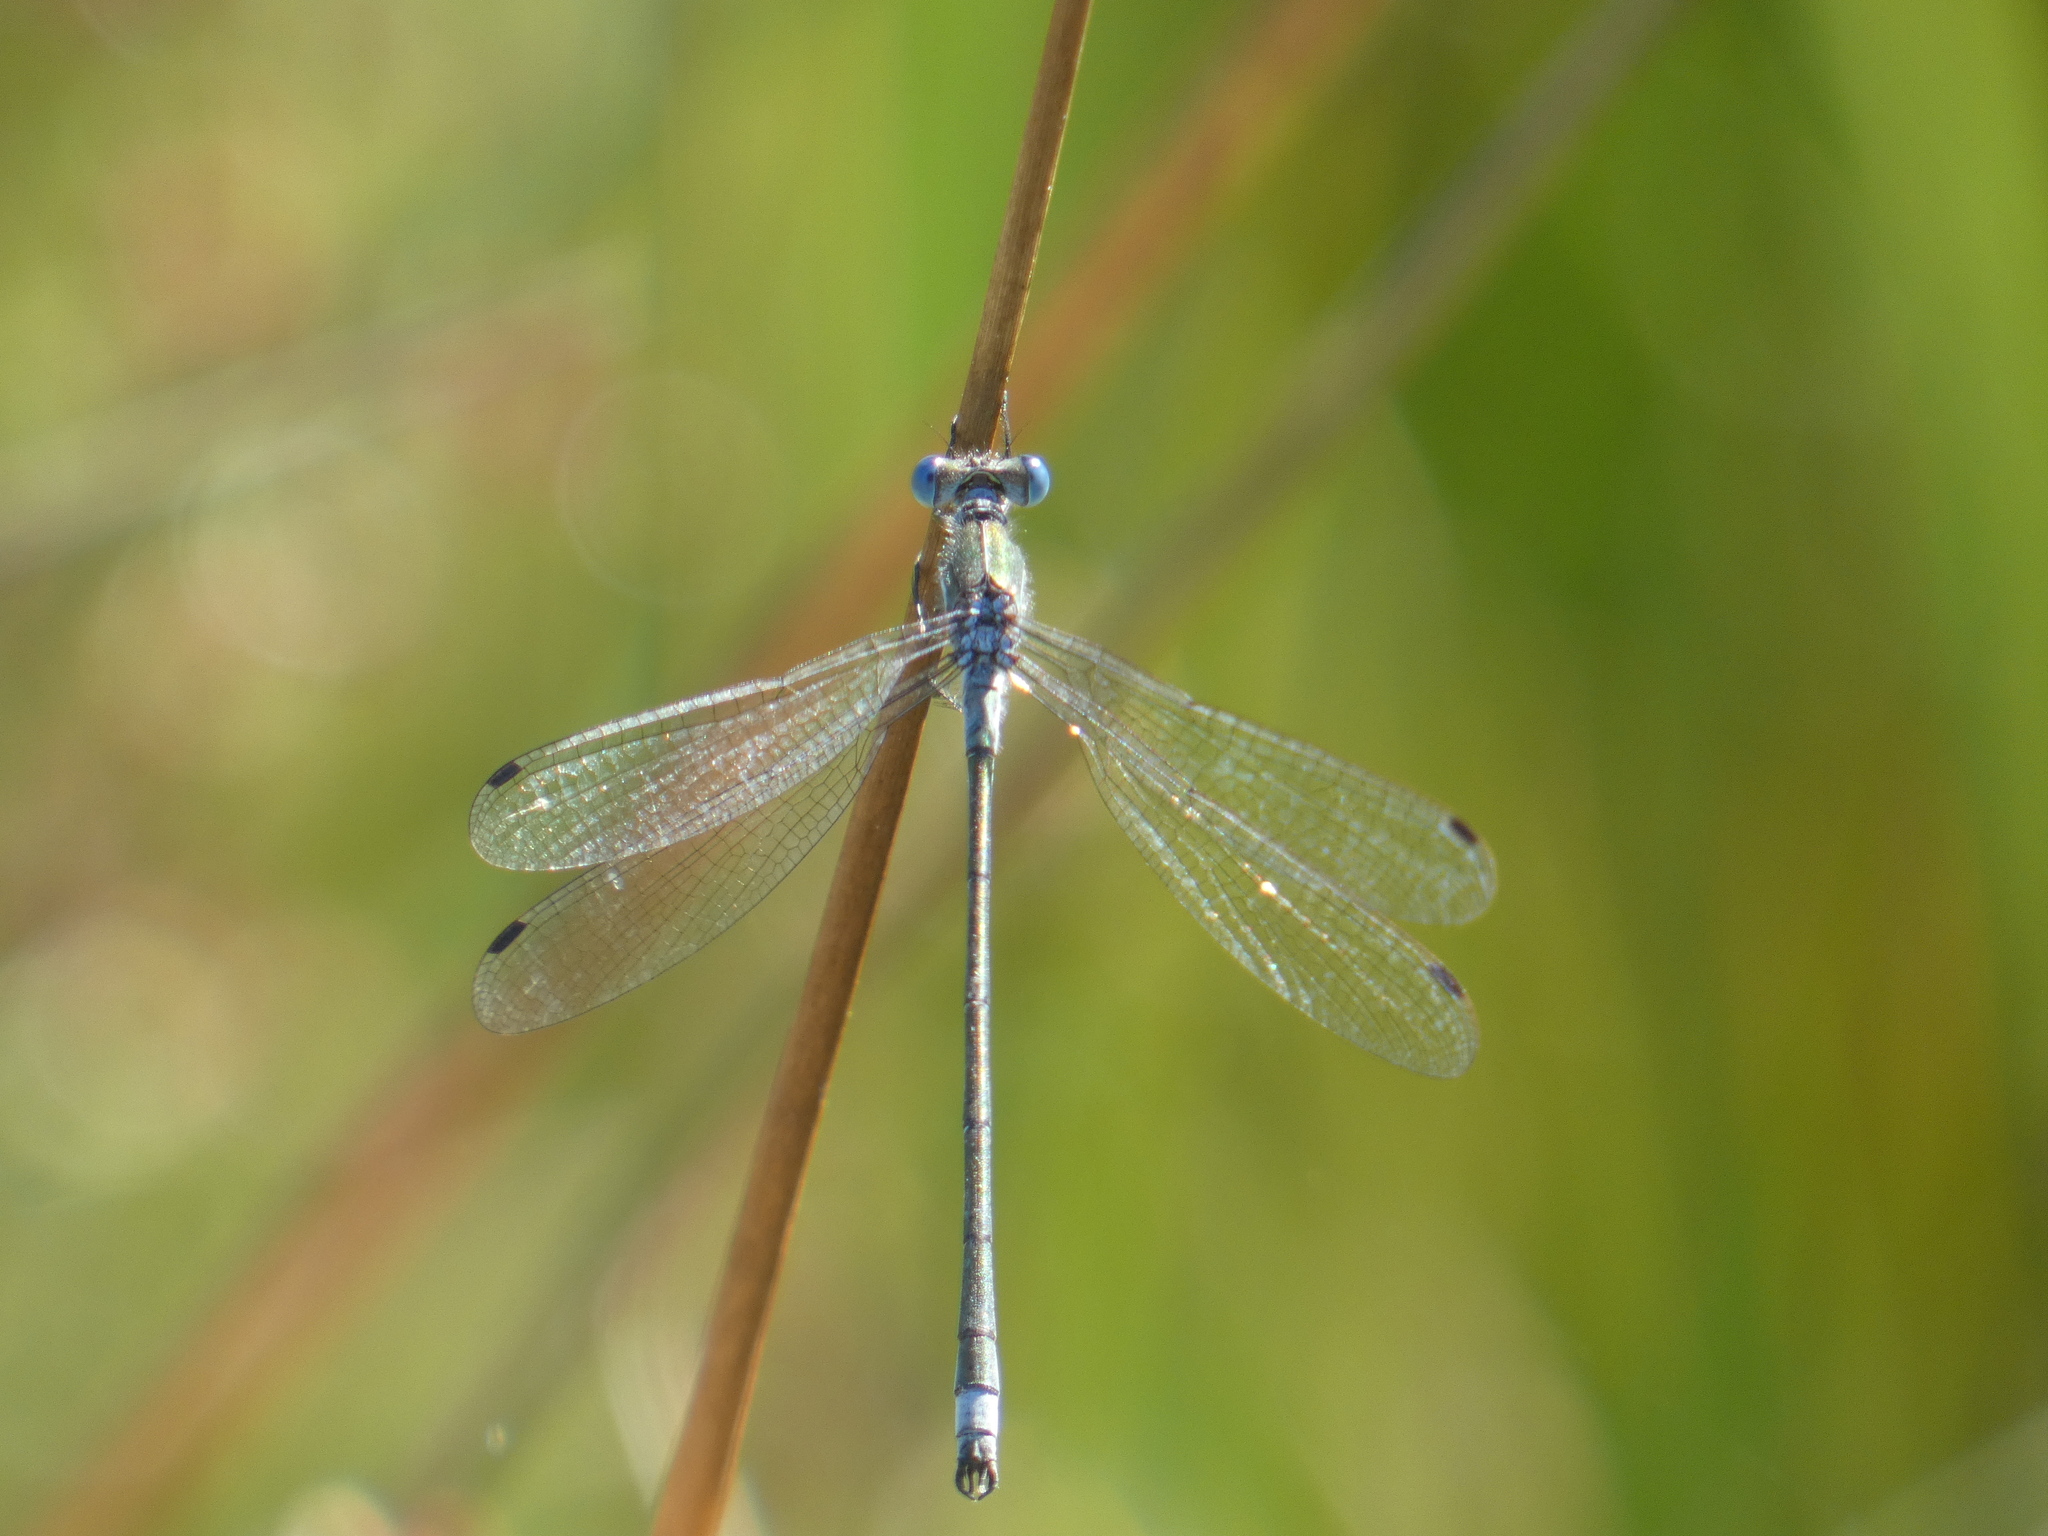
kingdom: Animalia
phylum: Arthropoda
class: Insecta
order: Odonata
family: Lestidae
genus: Lestes
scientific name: Lestes sponsa
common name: Common spreadwing
